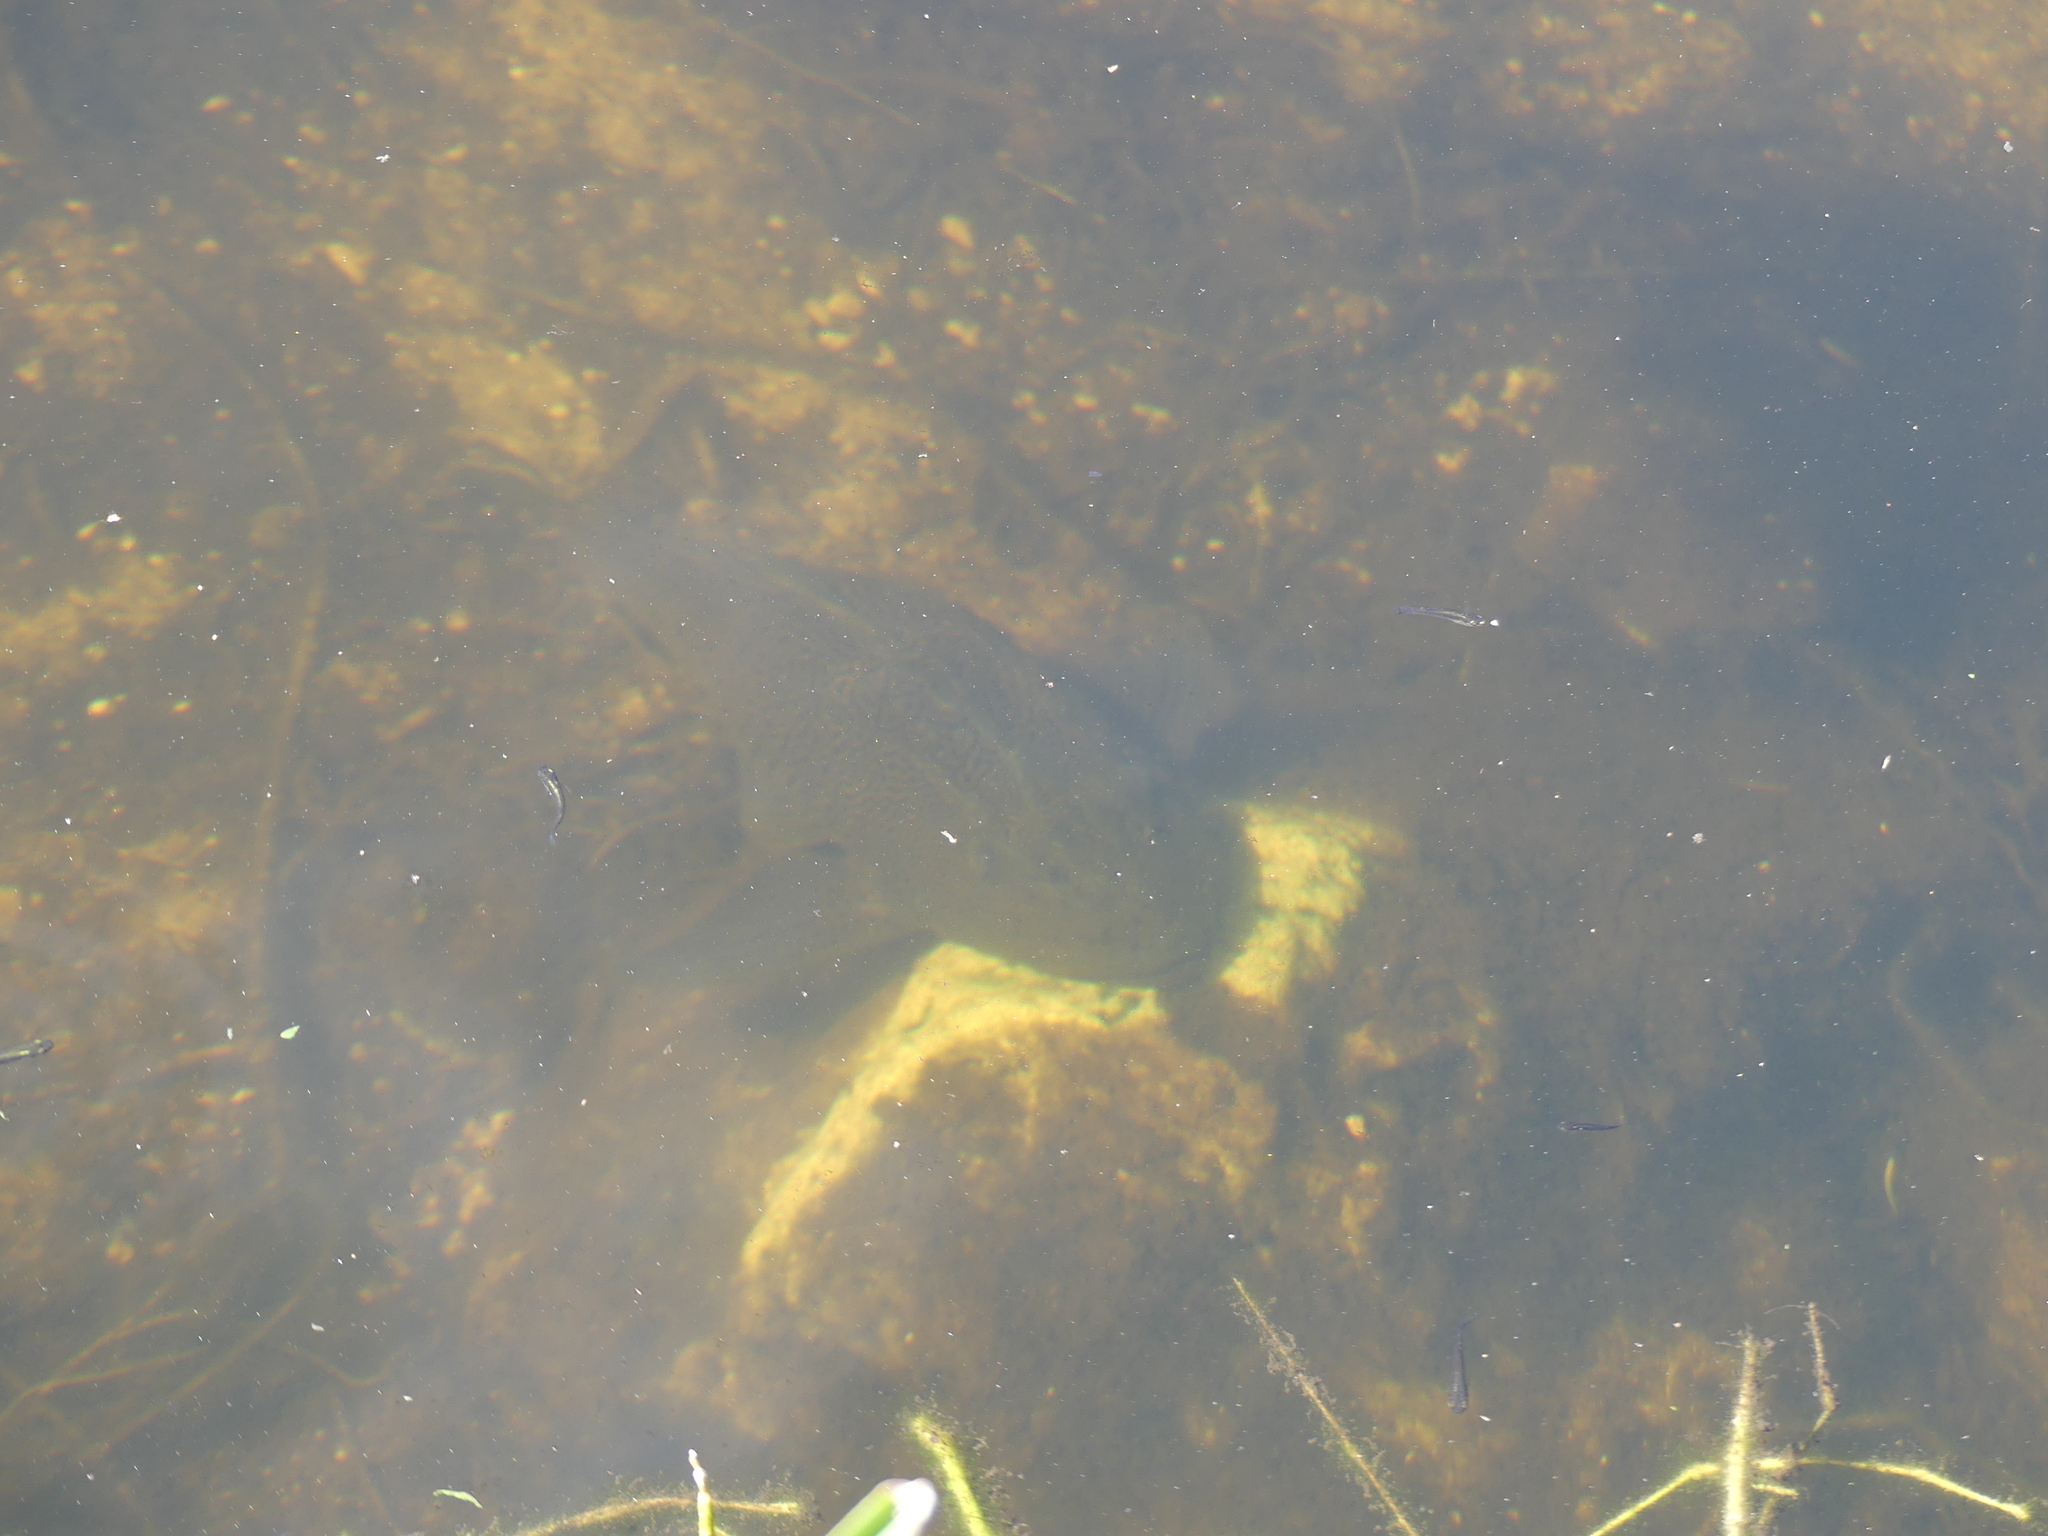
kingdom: Animalia
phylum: Chordata
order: Siluriformes
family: Loricariidae
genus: Pterygoplichthys
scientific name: Pterygoplichthys
